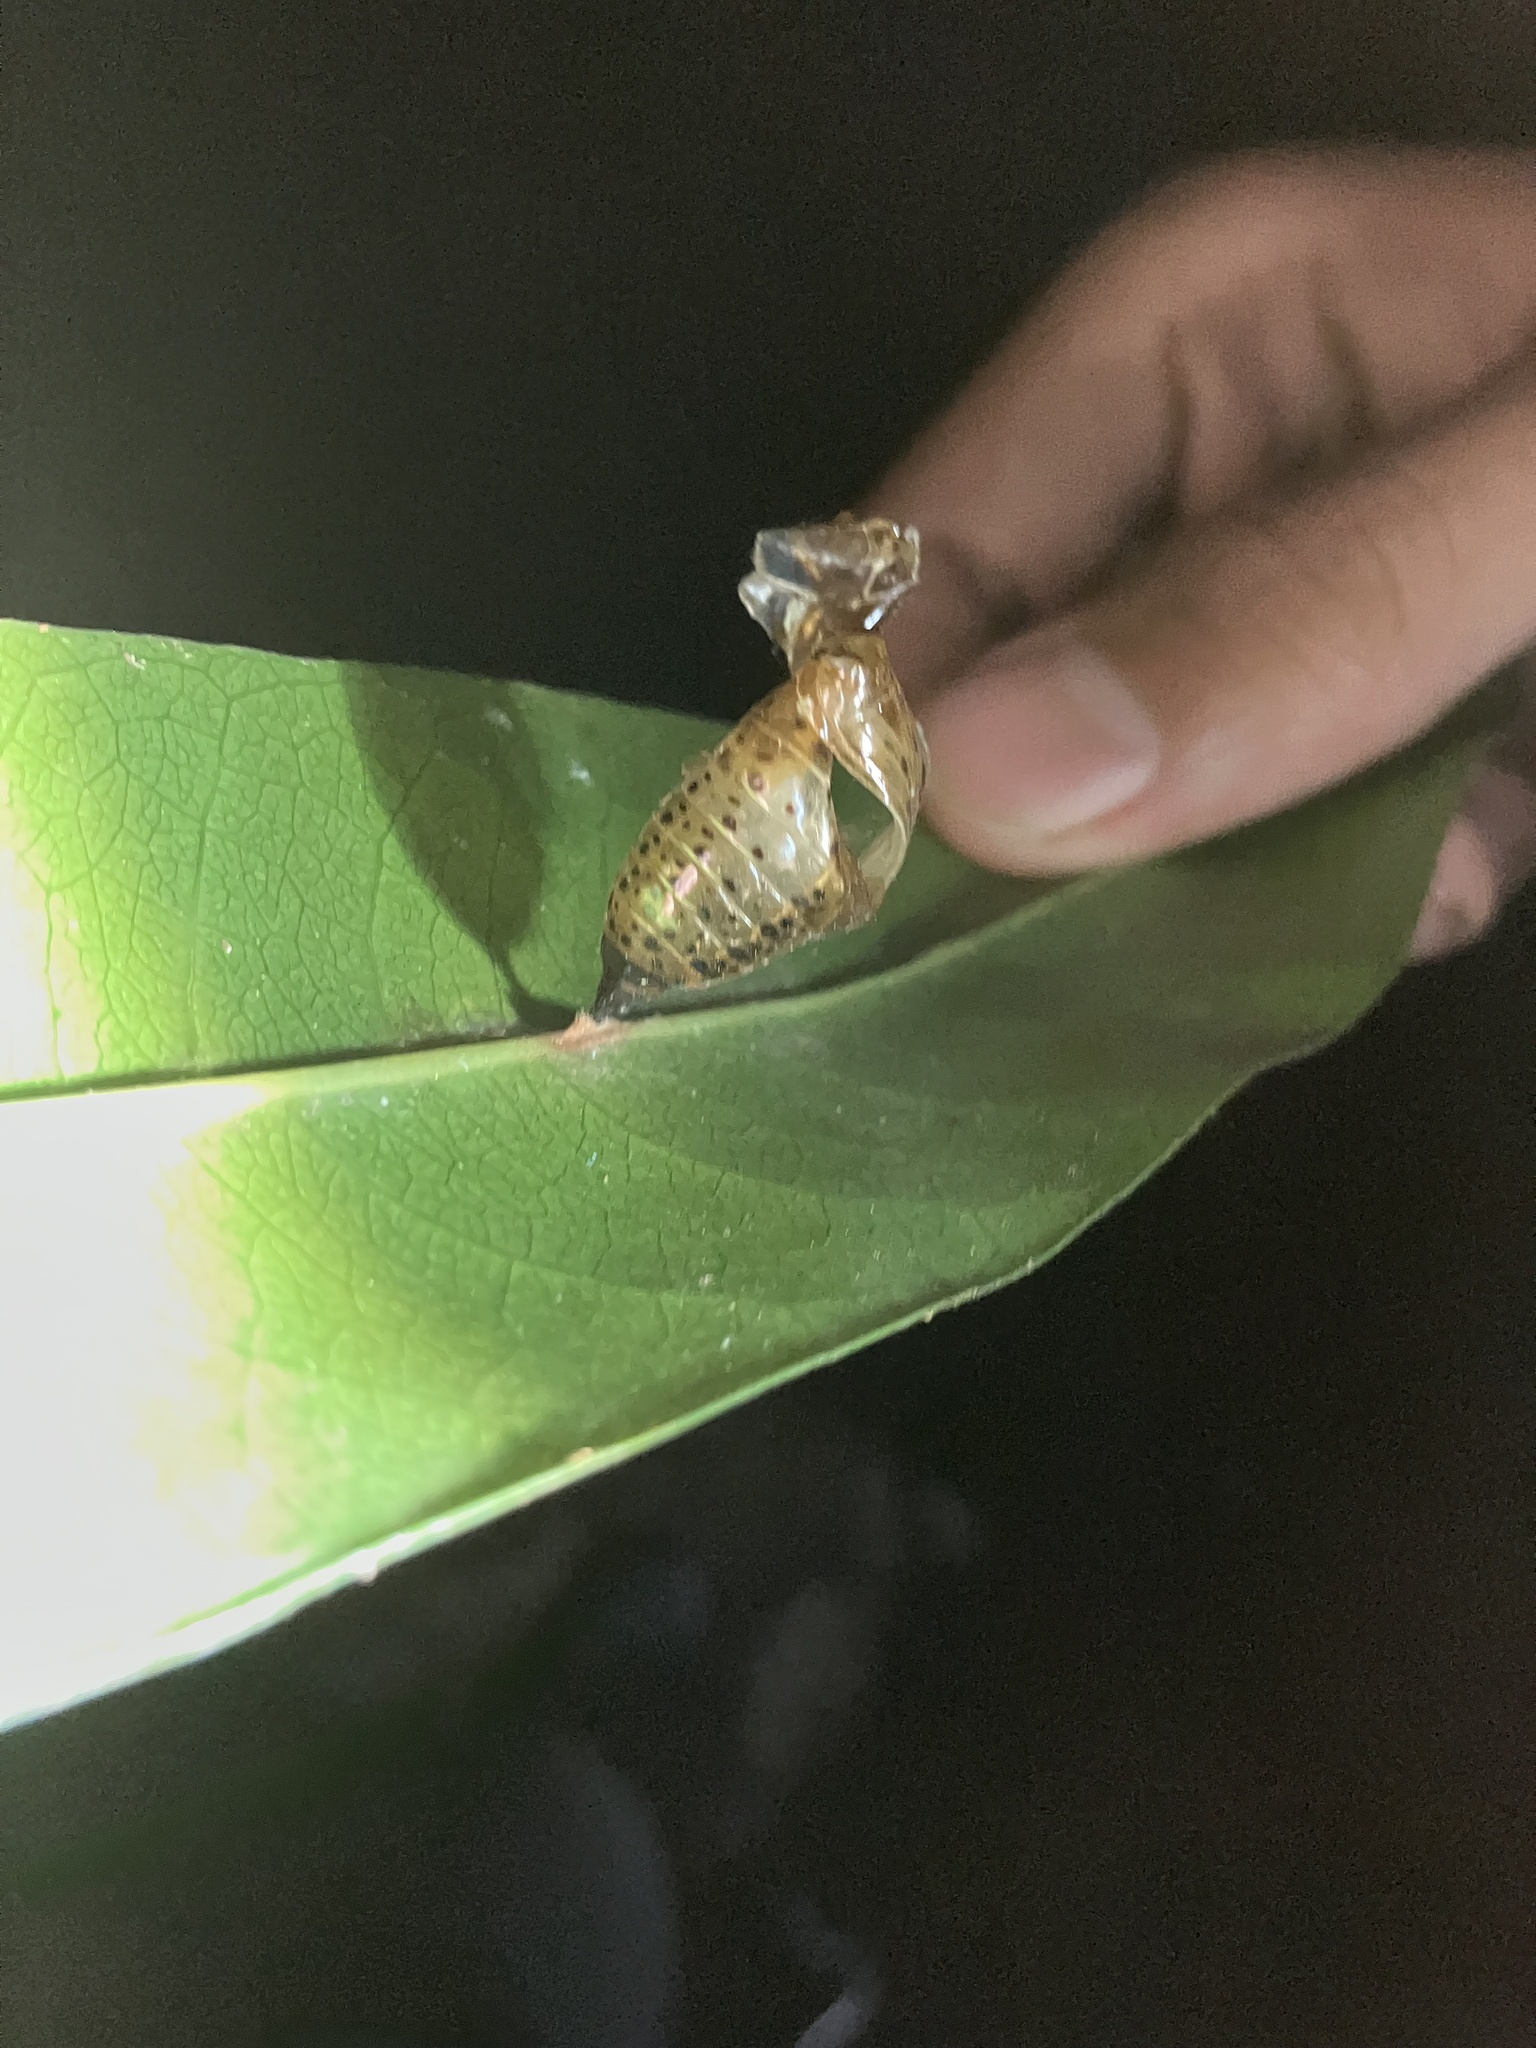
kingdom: Animalia
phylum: Arthropoda
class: Insecta
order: Lepidoptera
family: Nymphalidae
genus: Idea
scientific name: Idea malabarica
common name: Malabar tree-nymph
